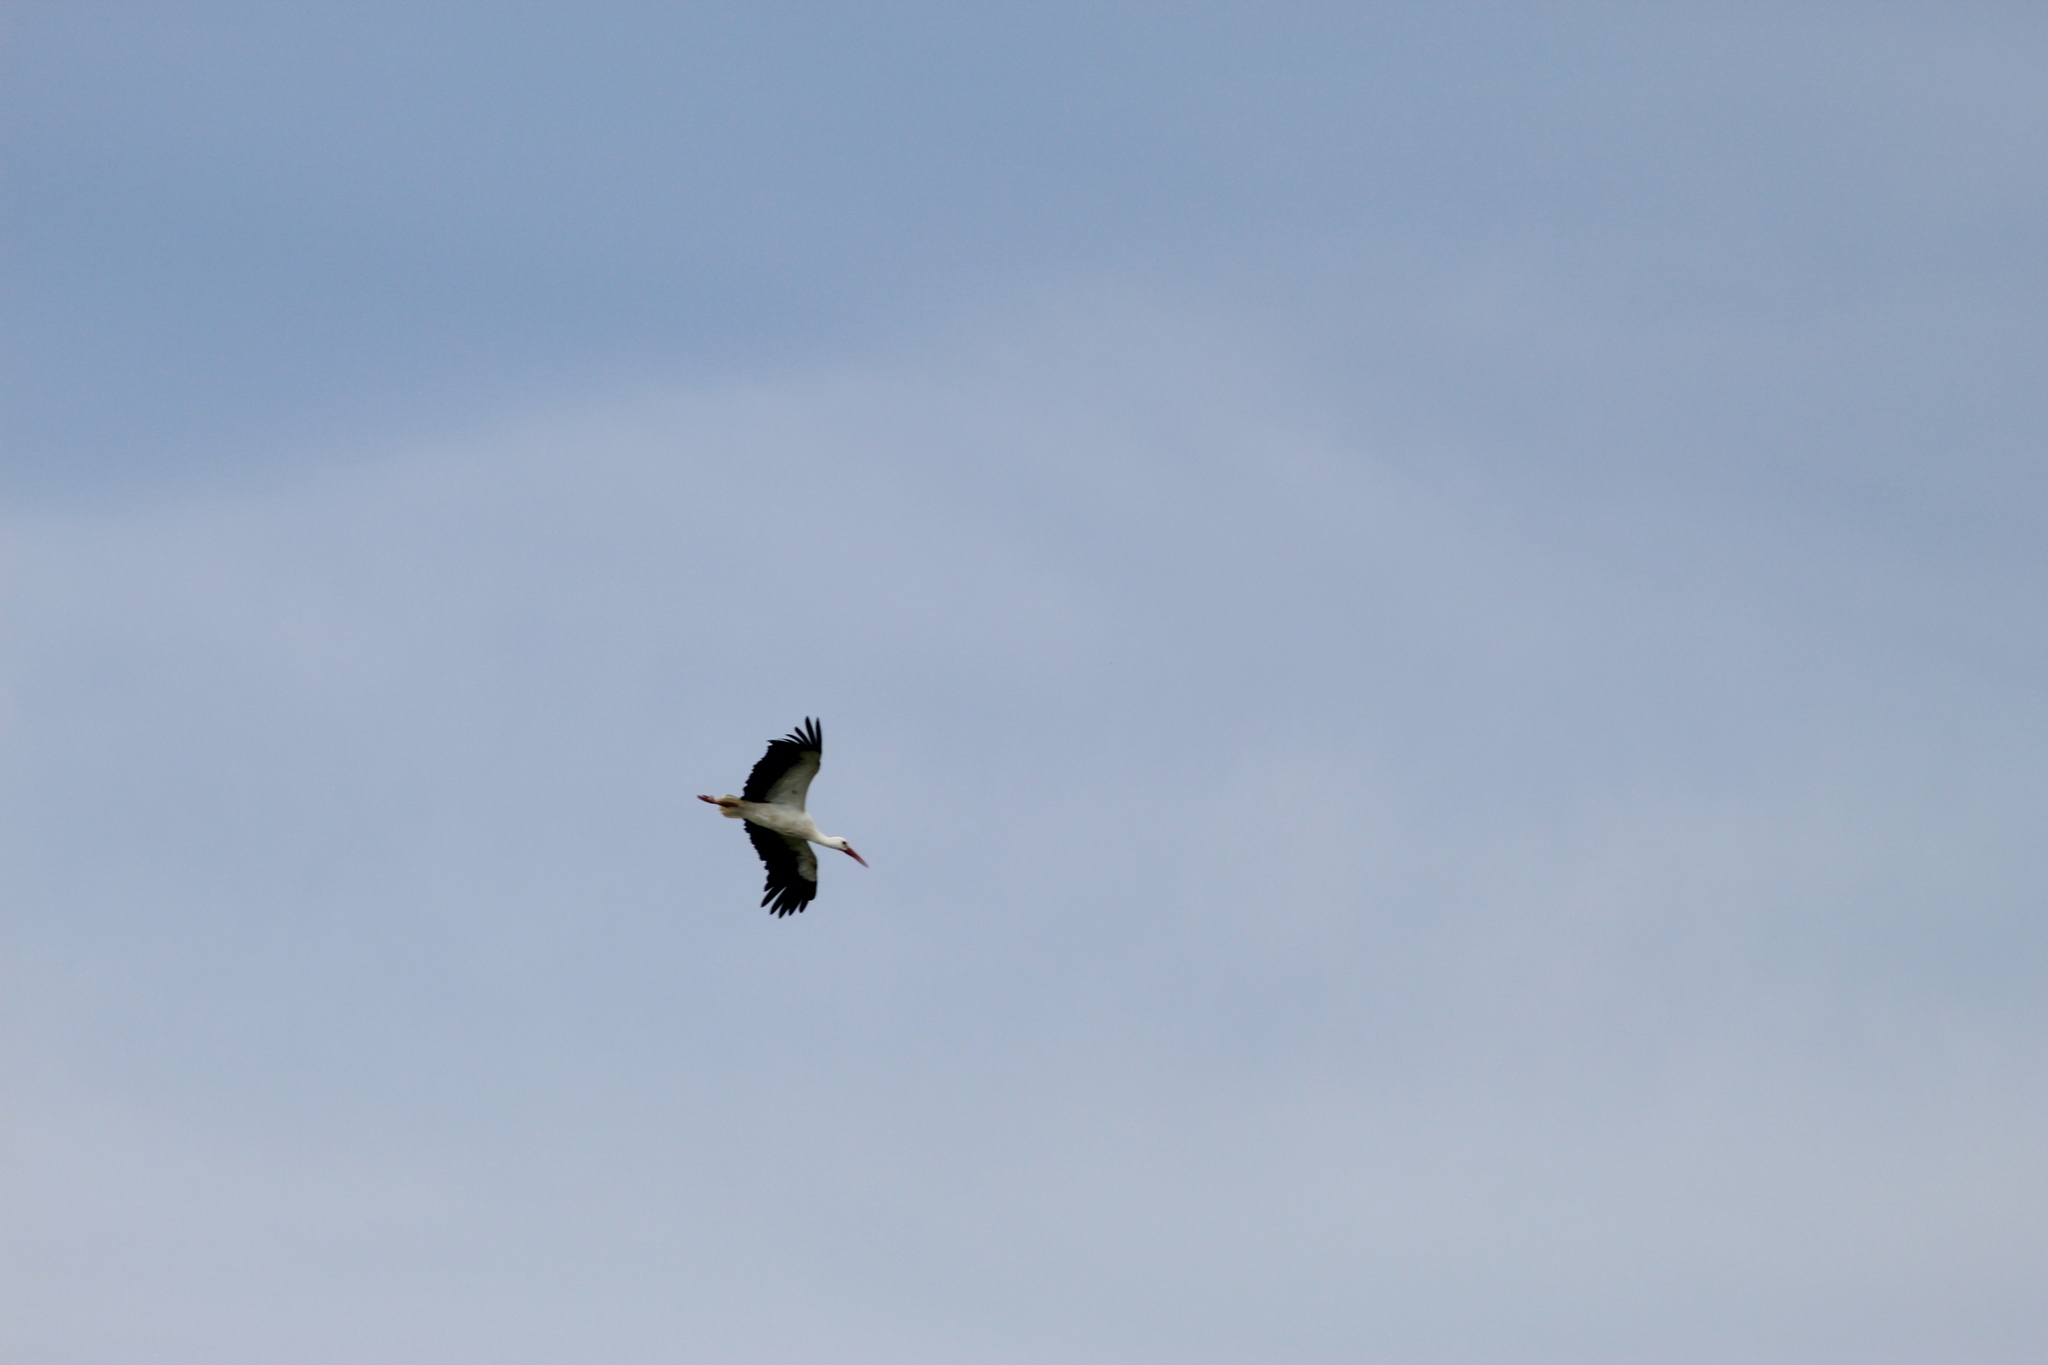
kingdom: Animalia
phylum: Chordata
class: Aves
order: Ciconiiformes
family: Ciconiidae
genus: Ciconia
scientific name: Ciconia ciconia
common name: White stork
